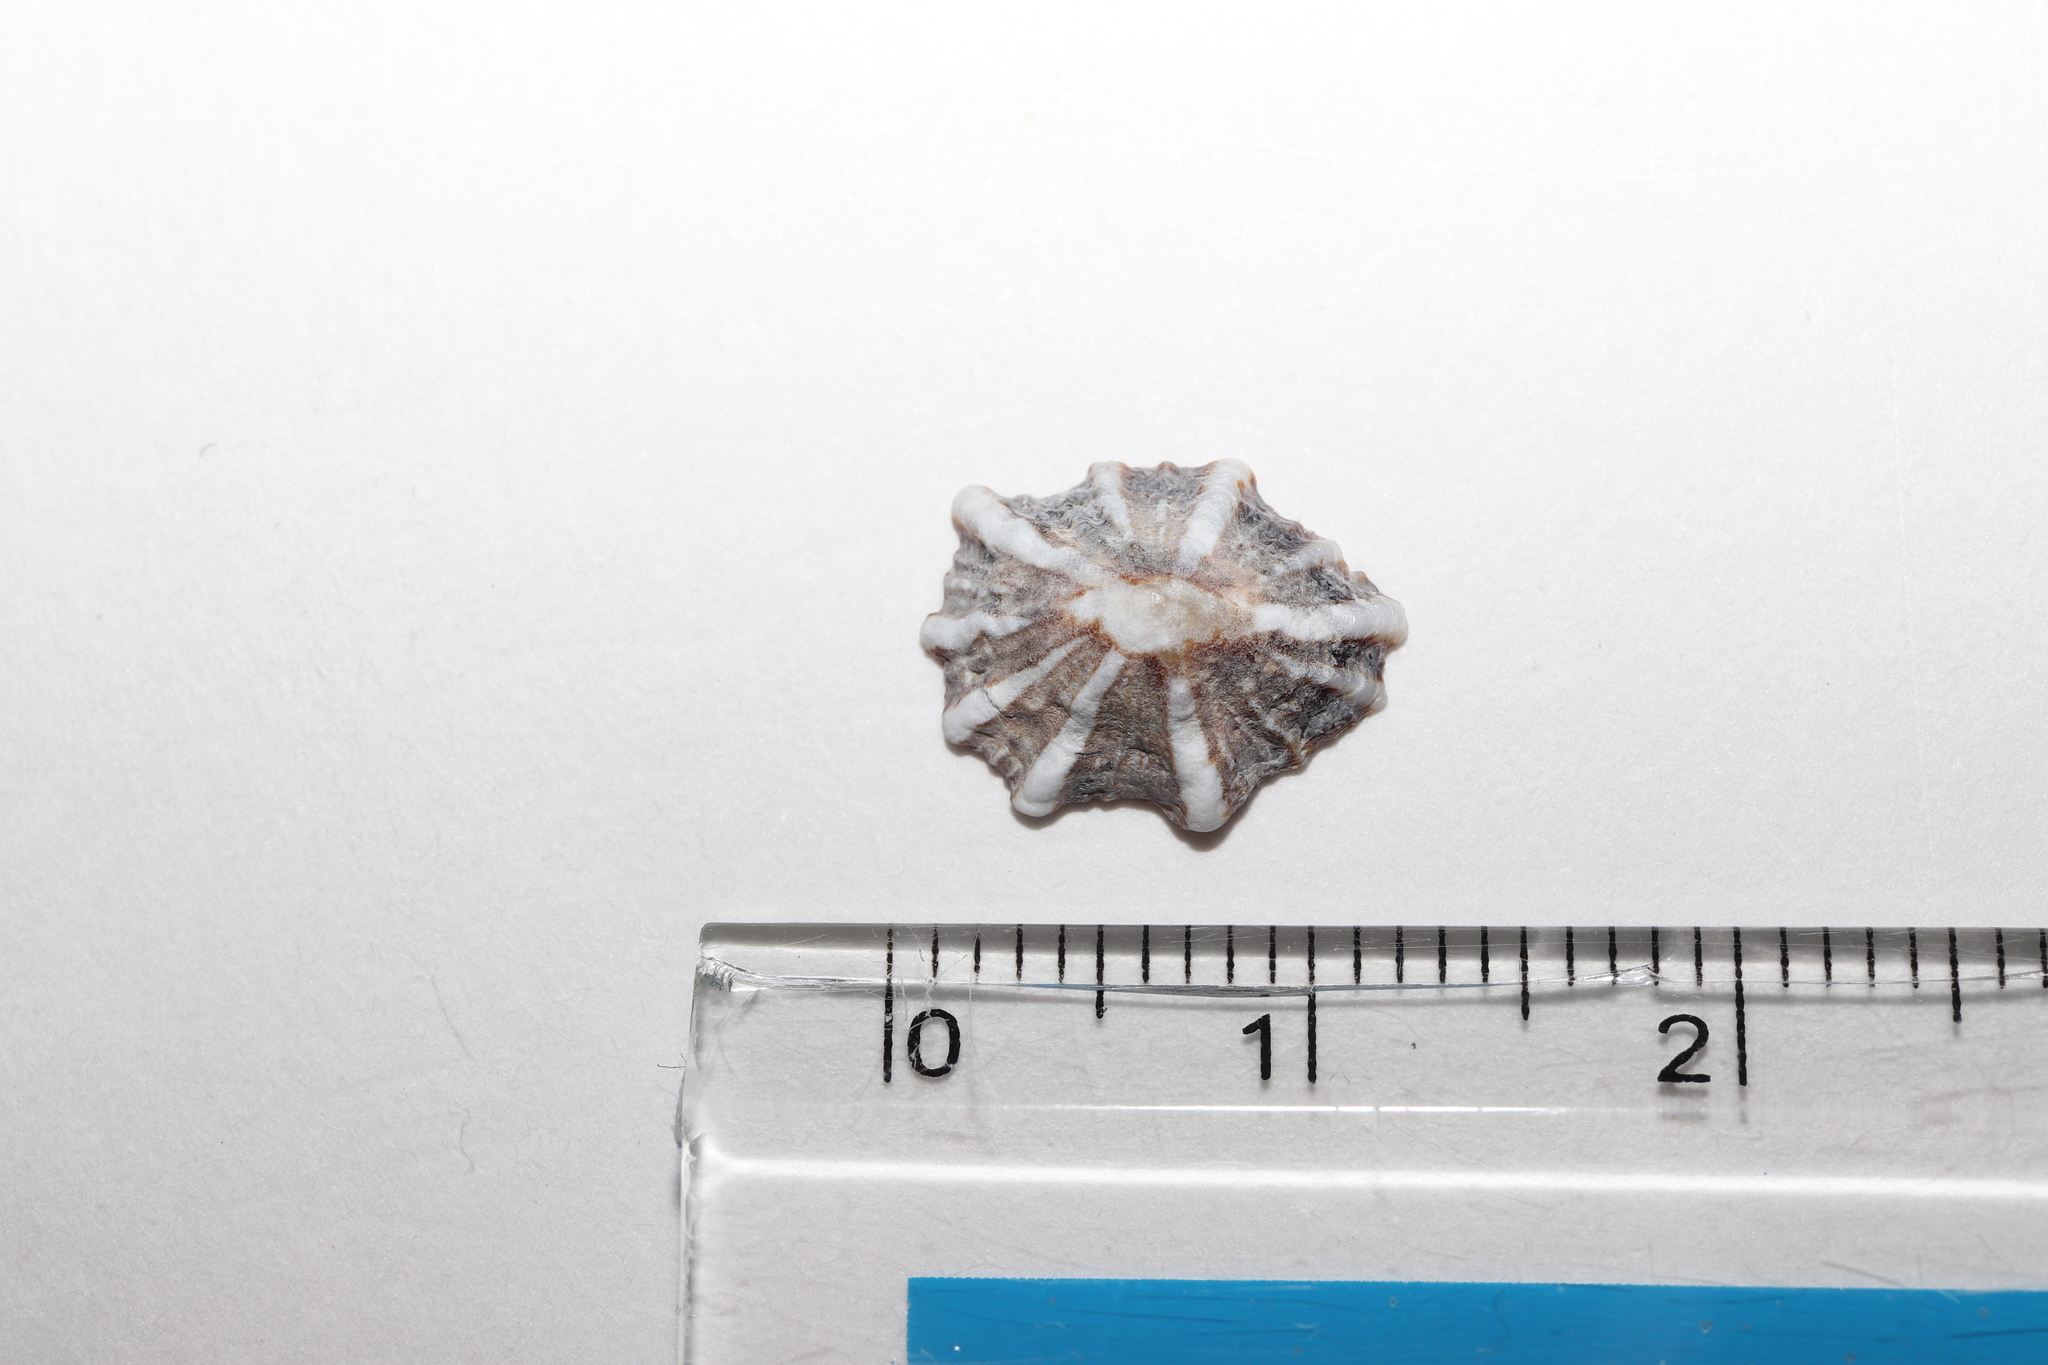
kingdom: Animalia
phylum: Mollusca
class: Gastropoda
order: Siphonariida
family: Siphonariidae
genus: Siphonaria
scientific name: Siphonaria sirius
